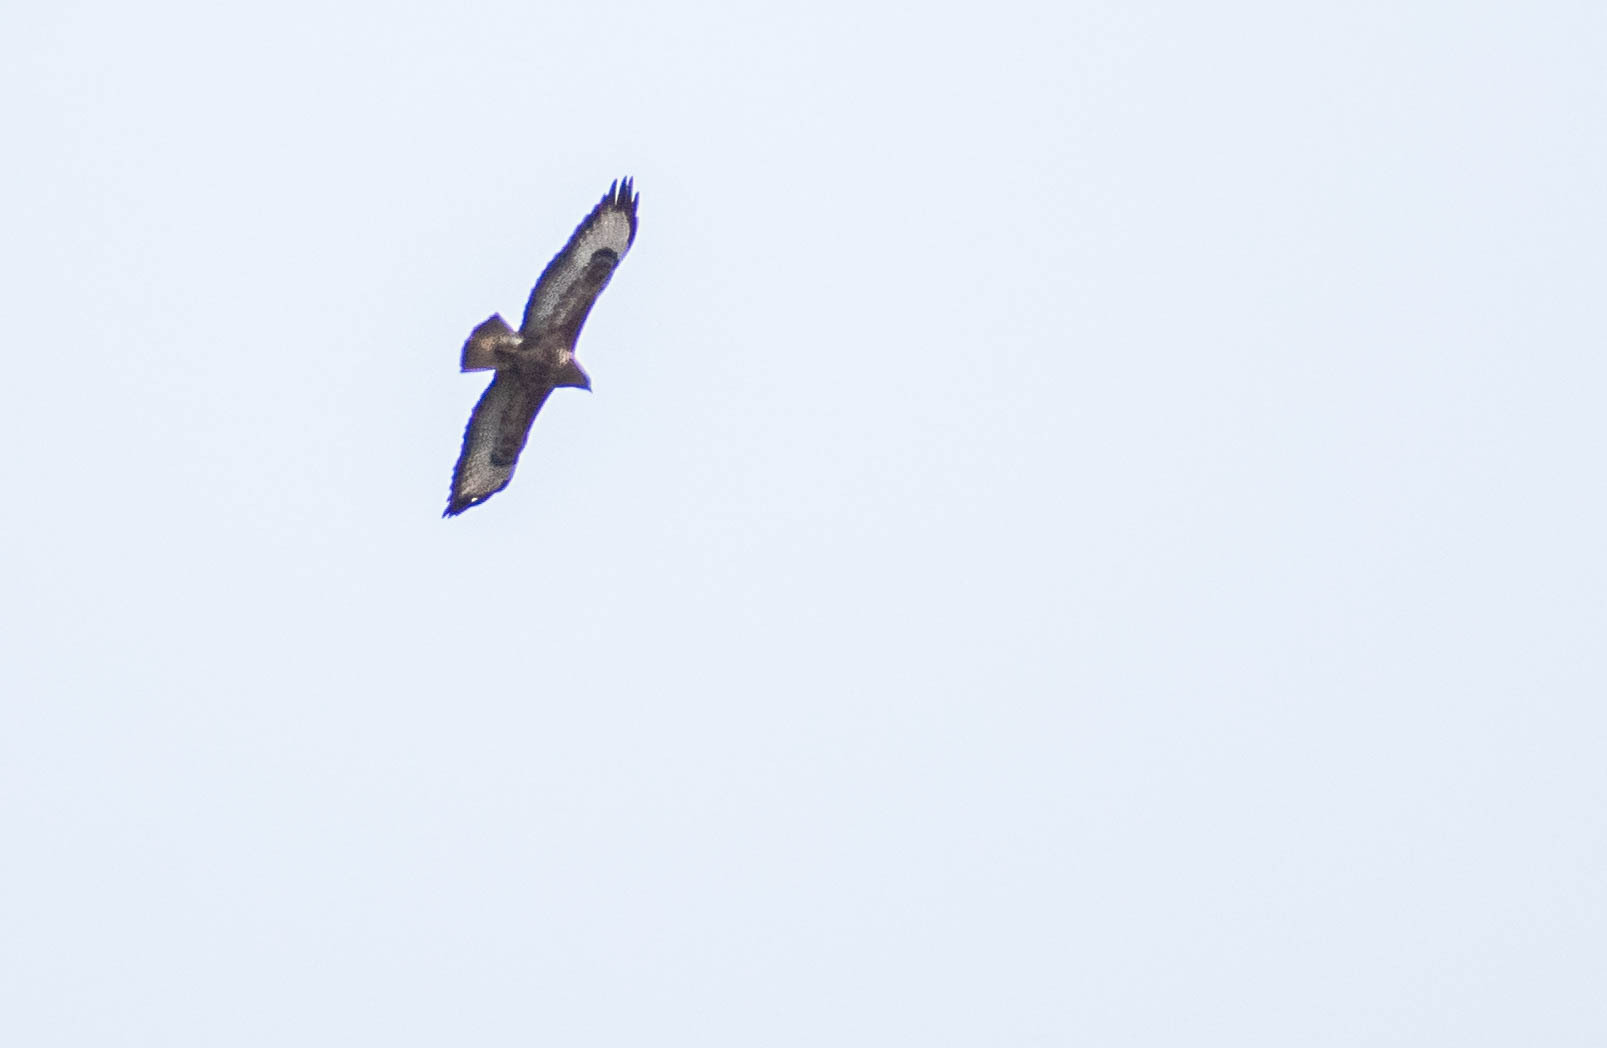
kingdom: Animalia
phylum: Chordata
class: Aves
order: Accipitriformes
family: Accipitridae
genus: Buteo
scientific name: Buteo buteo
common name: Common buzzard
